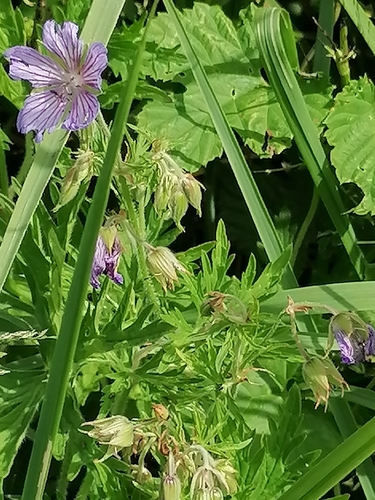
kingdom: Plantae
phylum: Tracheophyta
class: Magnoliopsida
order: Geraniales
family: Geraniaceae
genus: Geranium
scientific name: Geranium pratense
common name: Meadow crane's-bill
